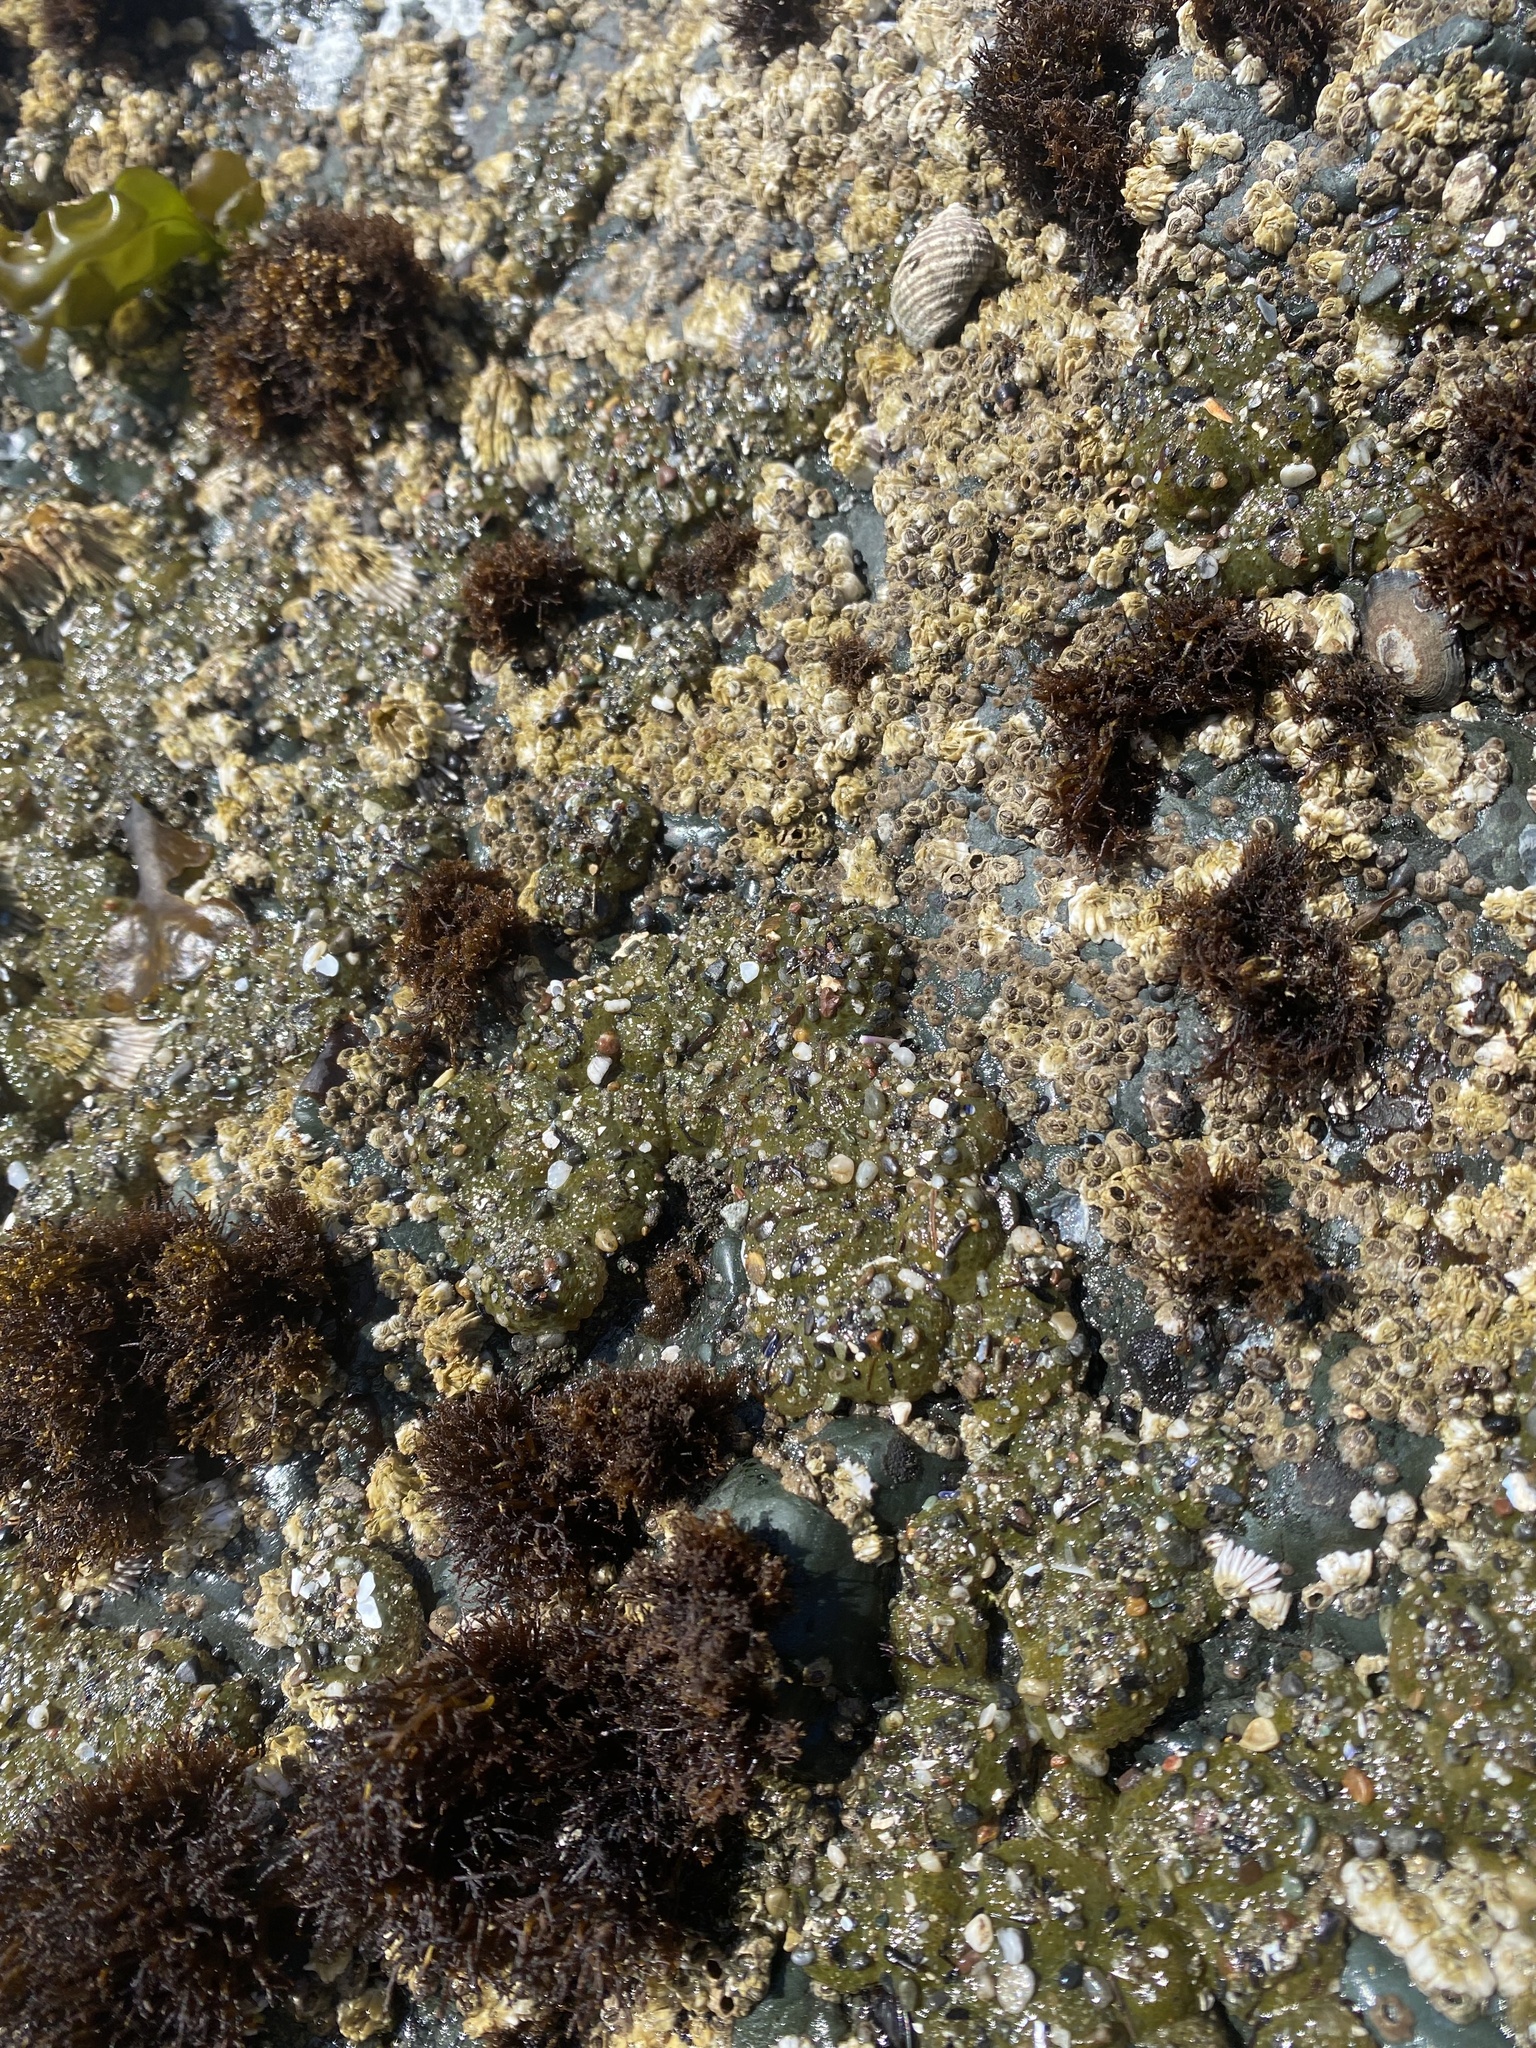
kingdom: Animalia
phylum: Cnidaria
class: Anthozoa
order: Actiniaria
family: Actiniidae
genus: Anthopleura
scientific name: Anthopleura elegantissima
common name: Clonal anemone
